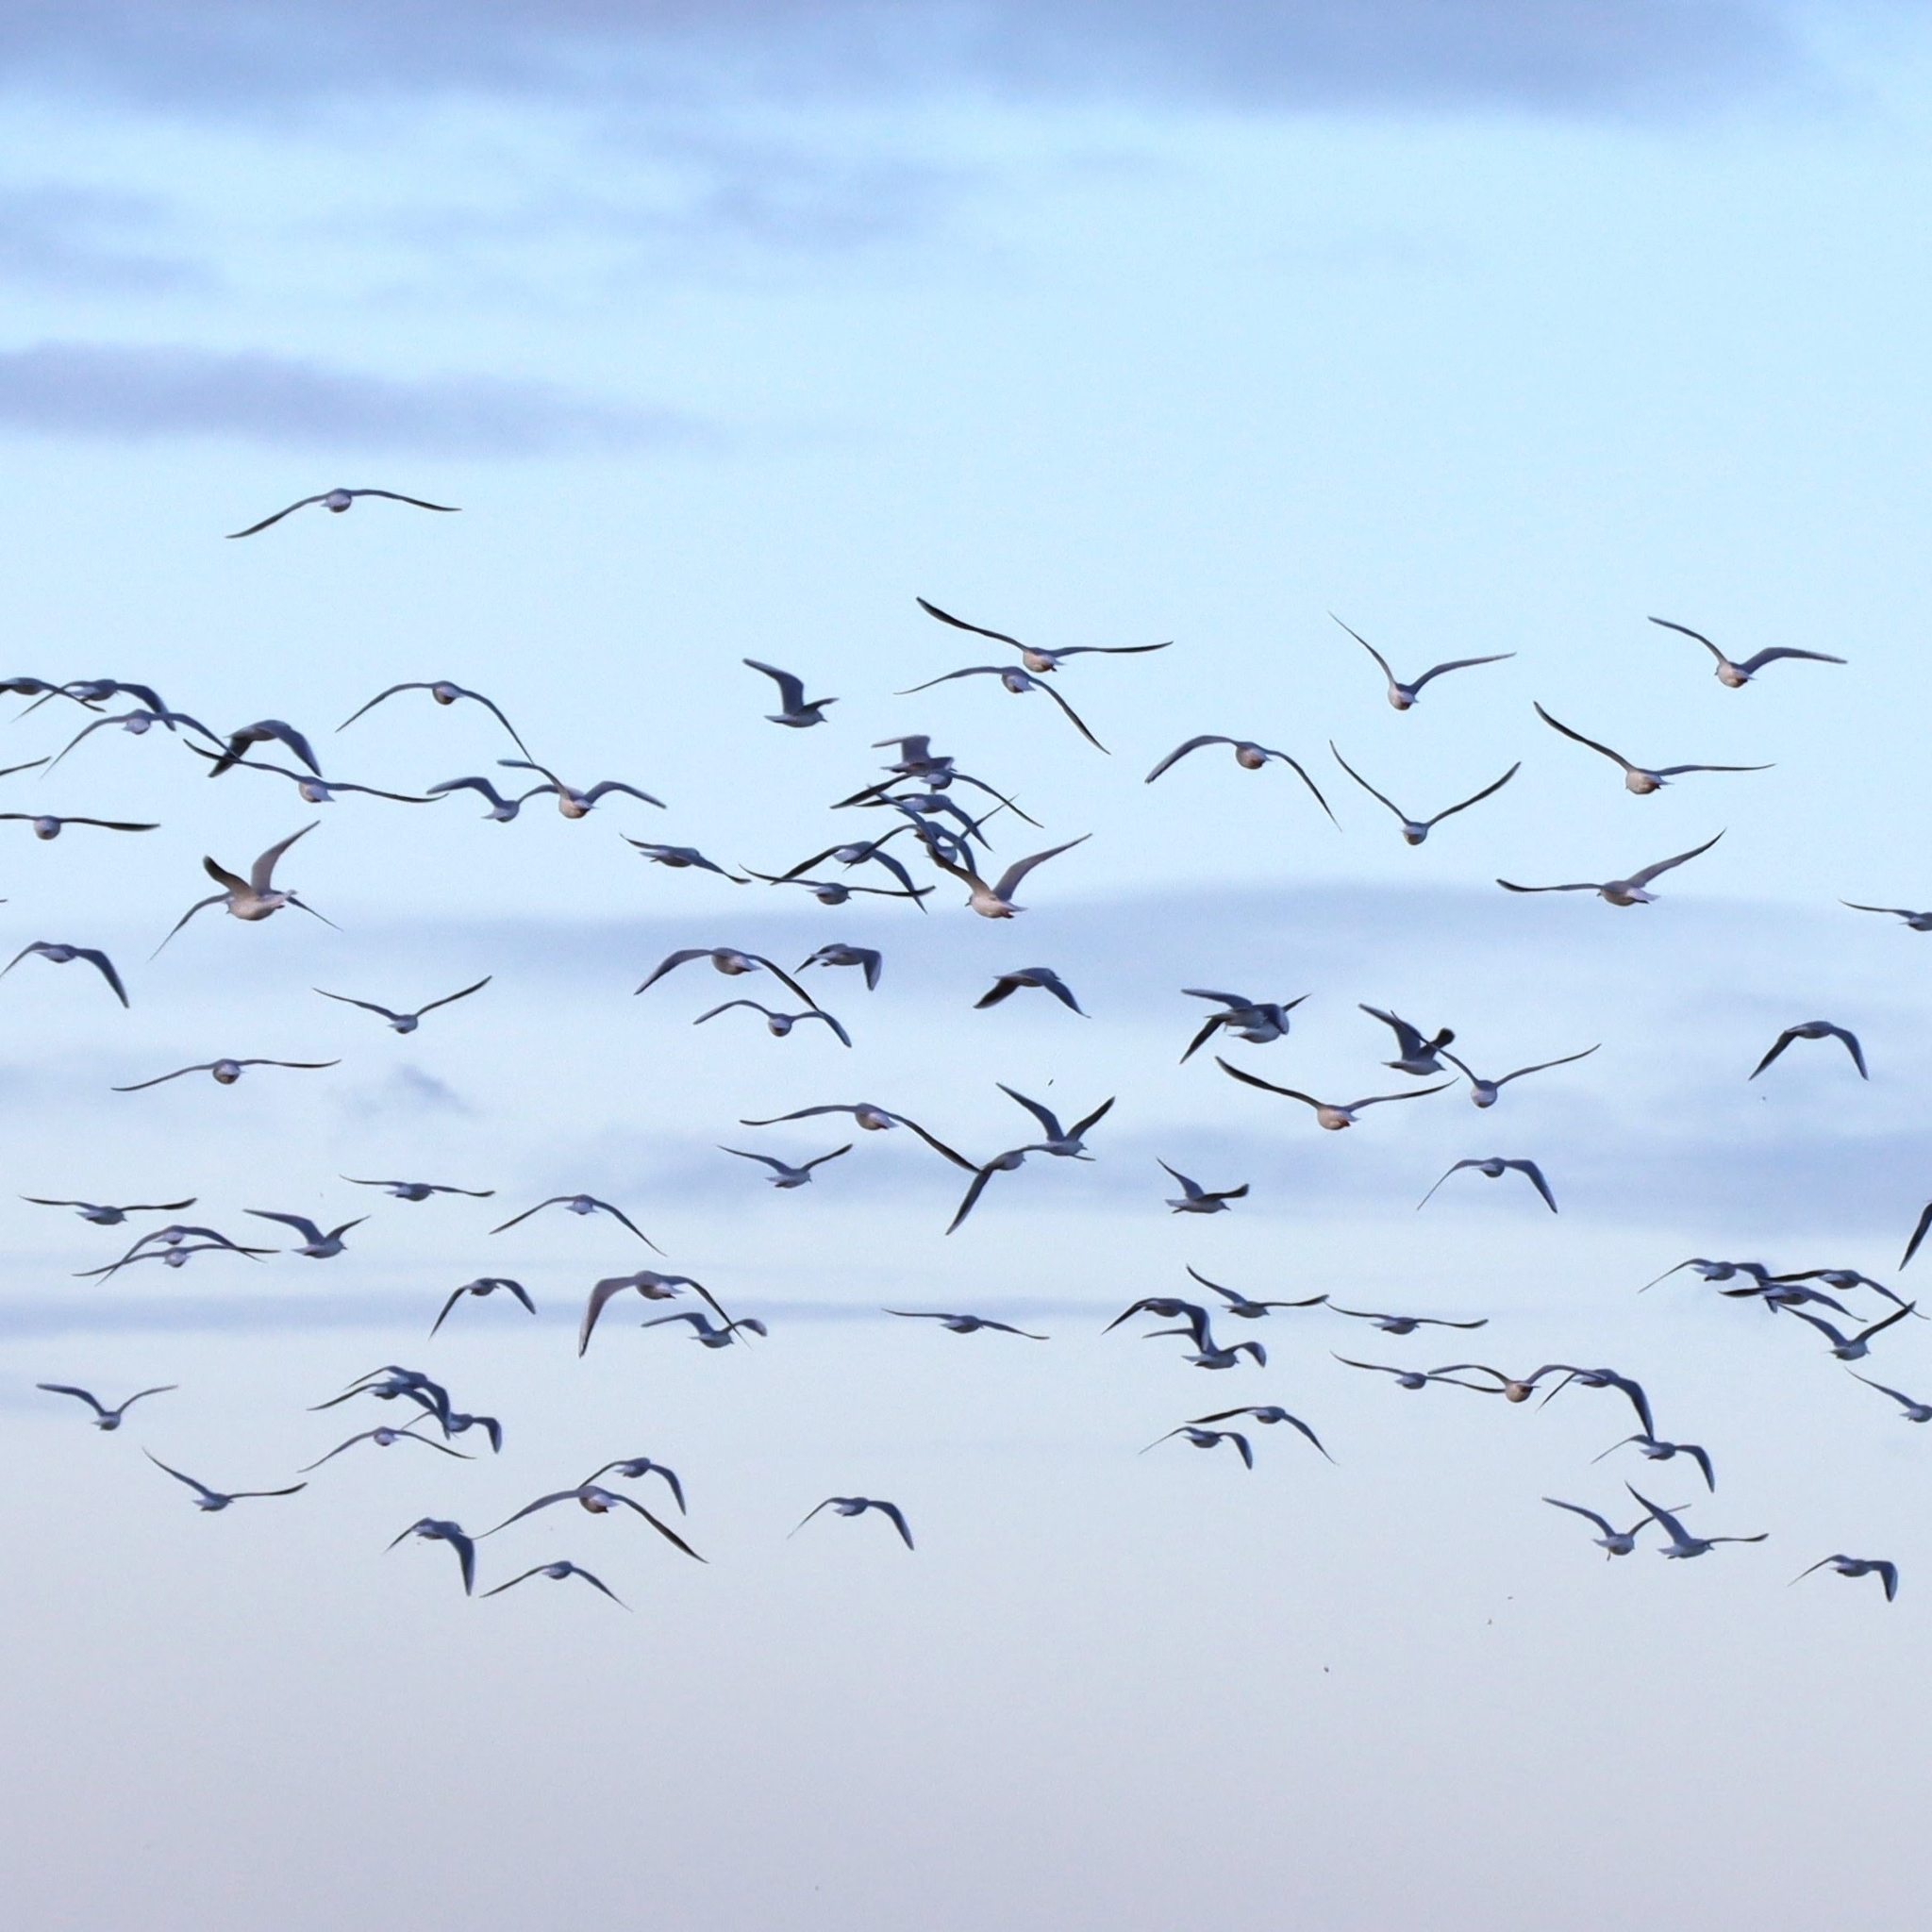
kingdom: Animalia
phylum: Chordata
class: Aves
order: Charadriiformes
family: Laridae
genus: Chroicocephalus
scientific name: Chroicocephalus ridibundus
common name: Black-headed gull
